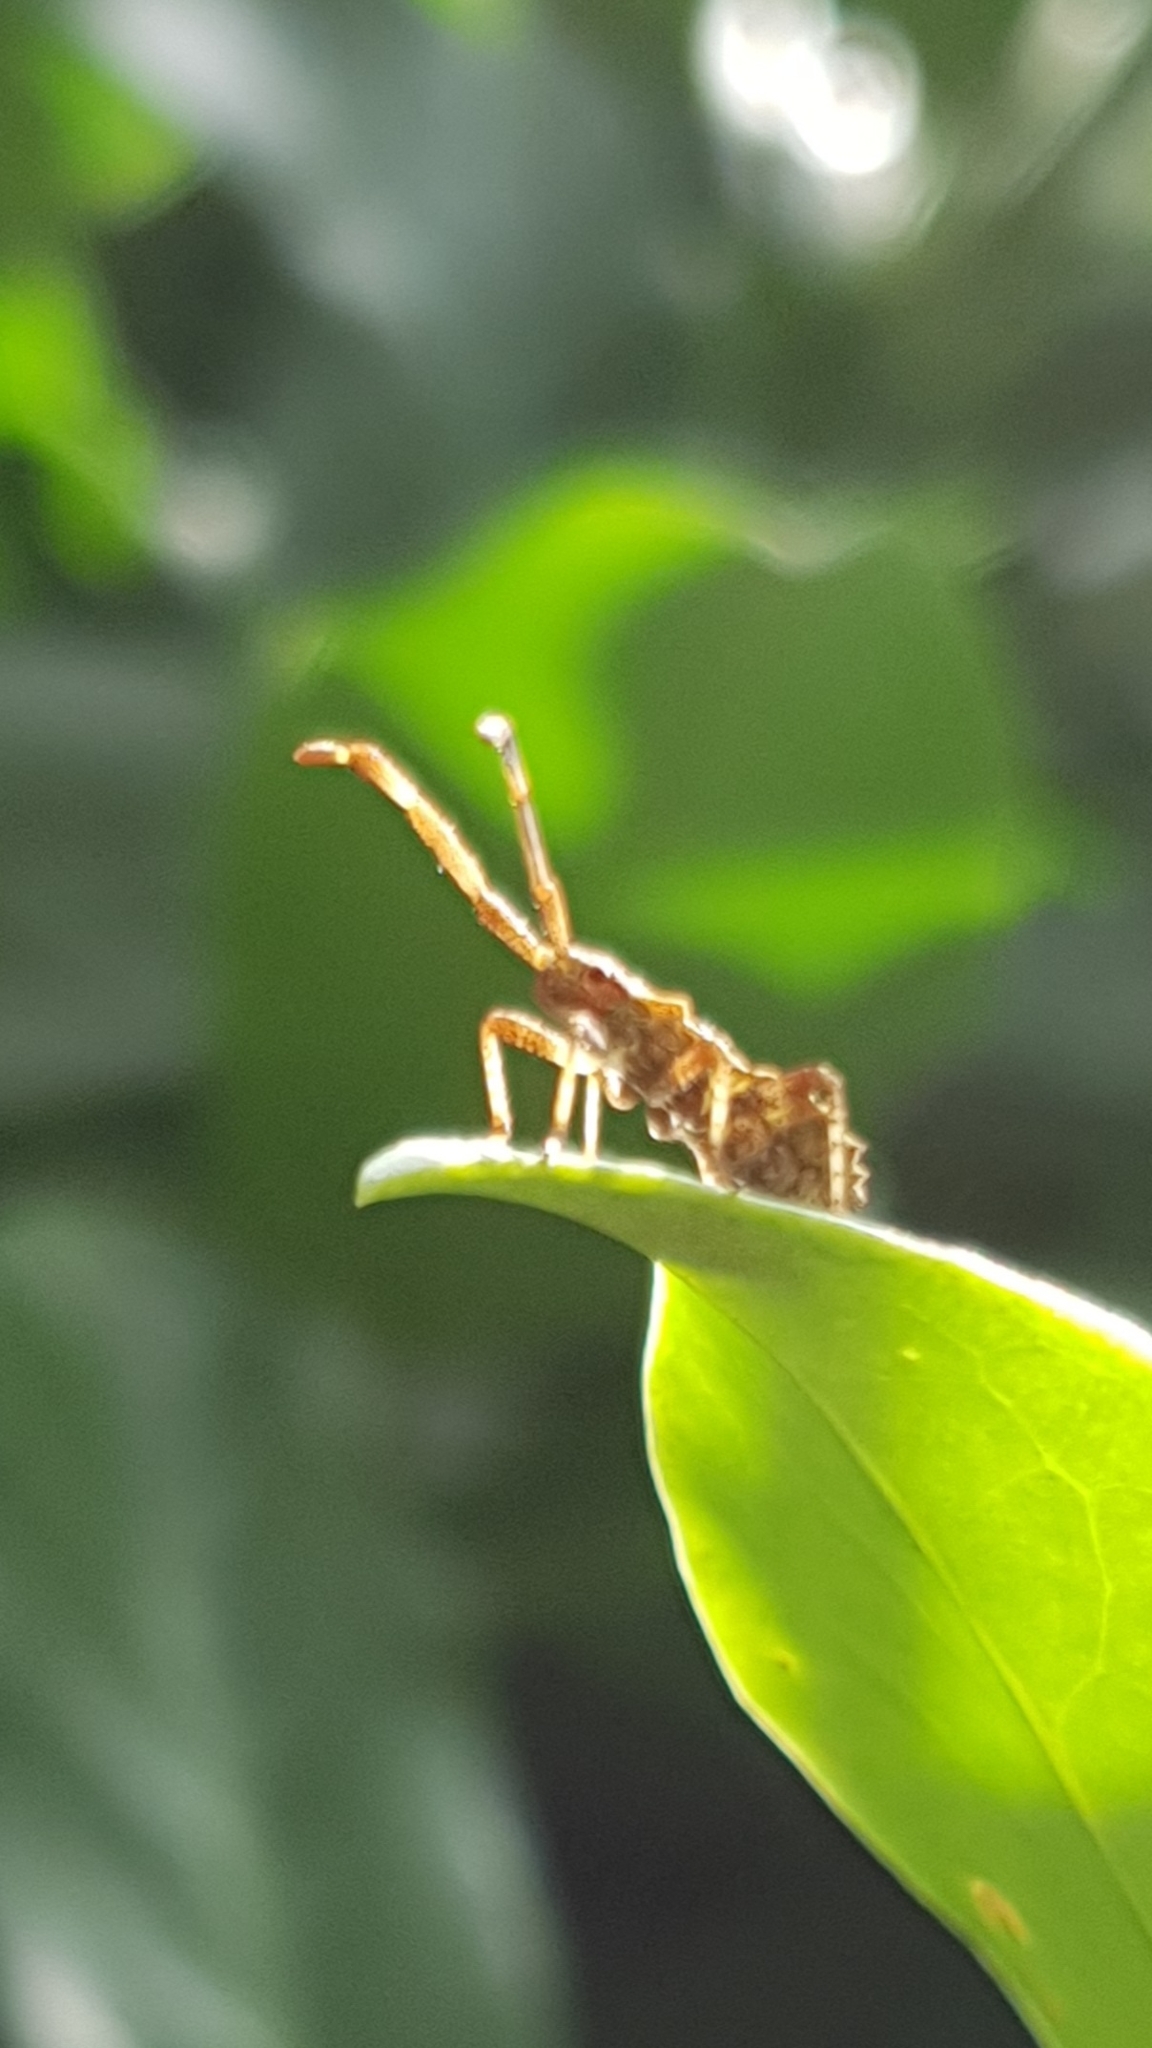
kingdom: Animalia
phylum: Arthropoda
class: Insecta
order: Hemiptera
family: Coreidae
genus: Coreus
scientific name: Coreus marginatus
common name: Dock bug
